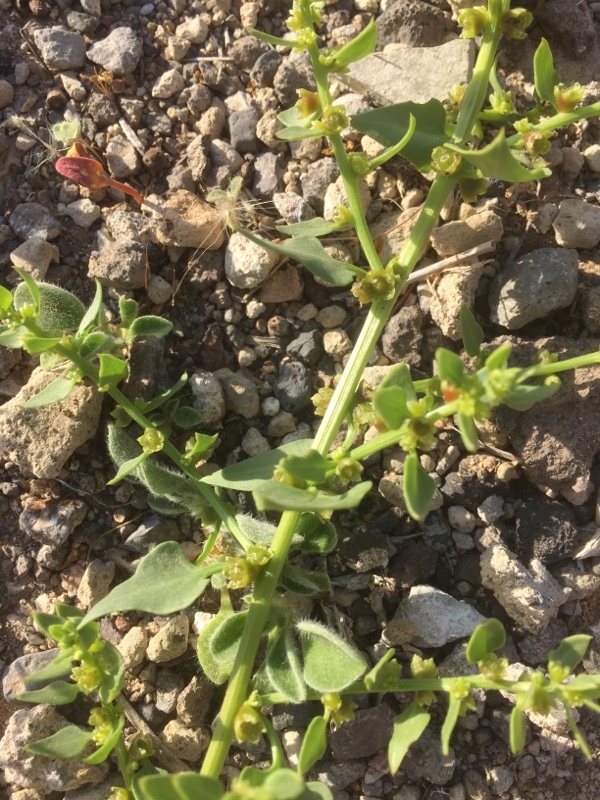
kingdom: Plantae
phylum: Tracheophyta
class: Magnoliopsida
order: Caryophyllales
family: Amaranthaceae
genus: Patellifolia
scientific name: Patellifolia procumbens
